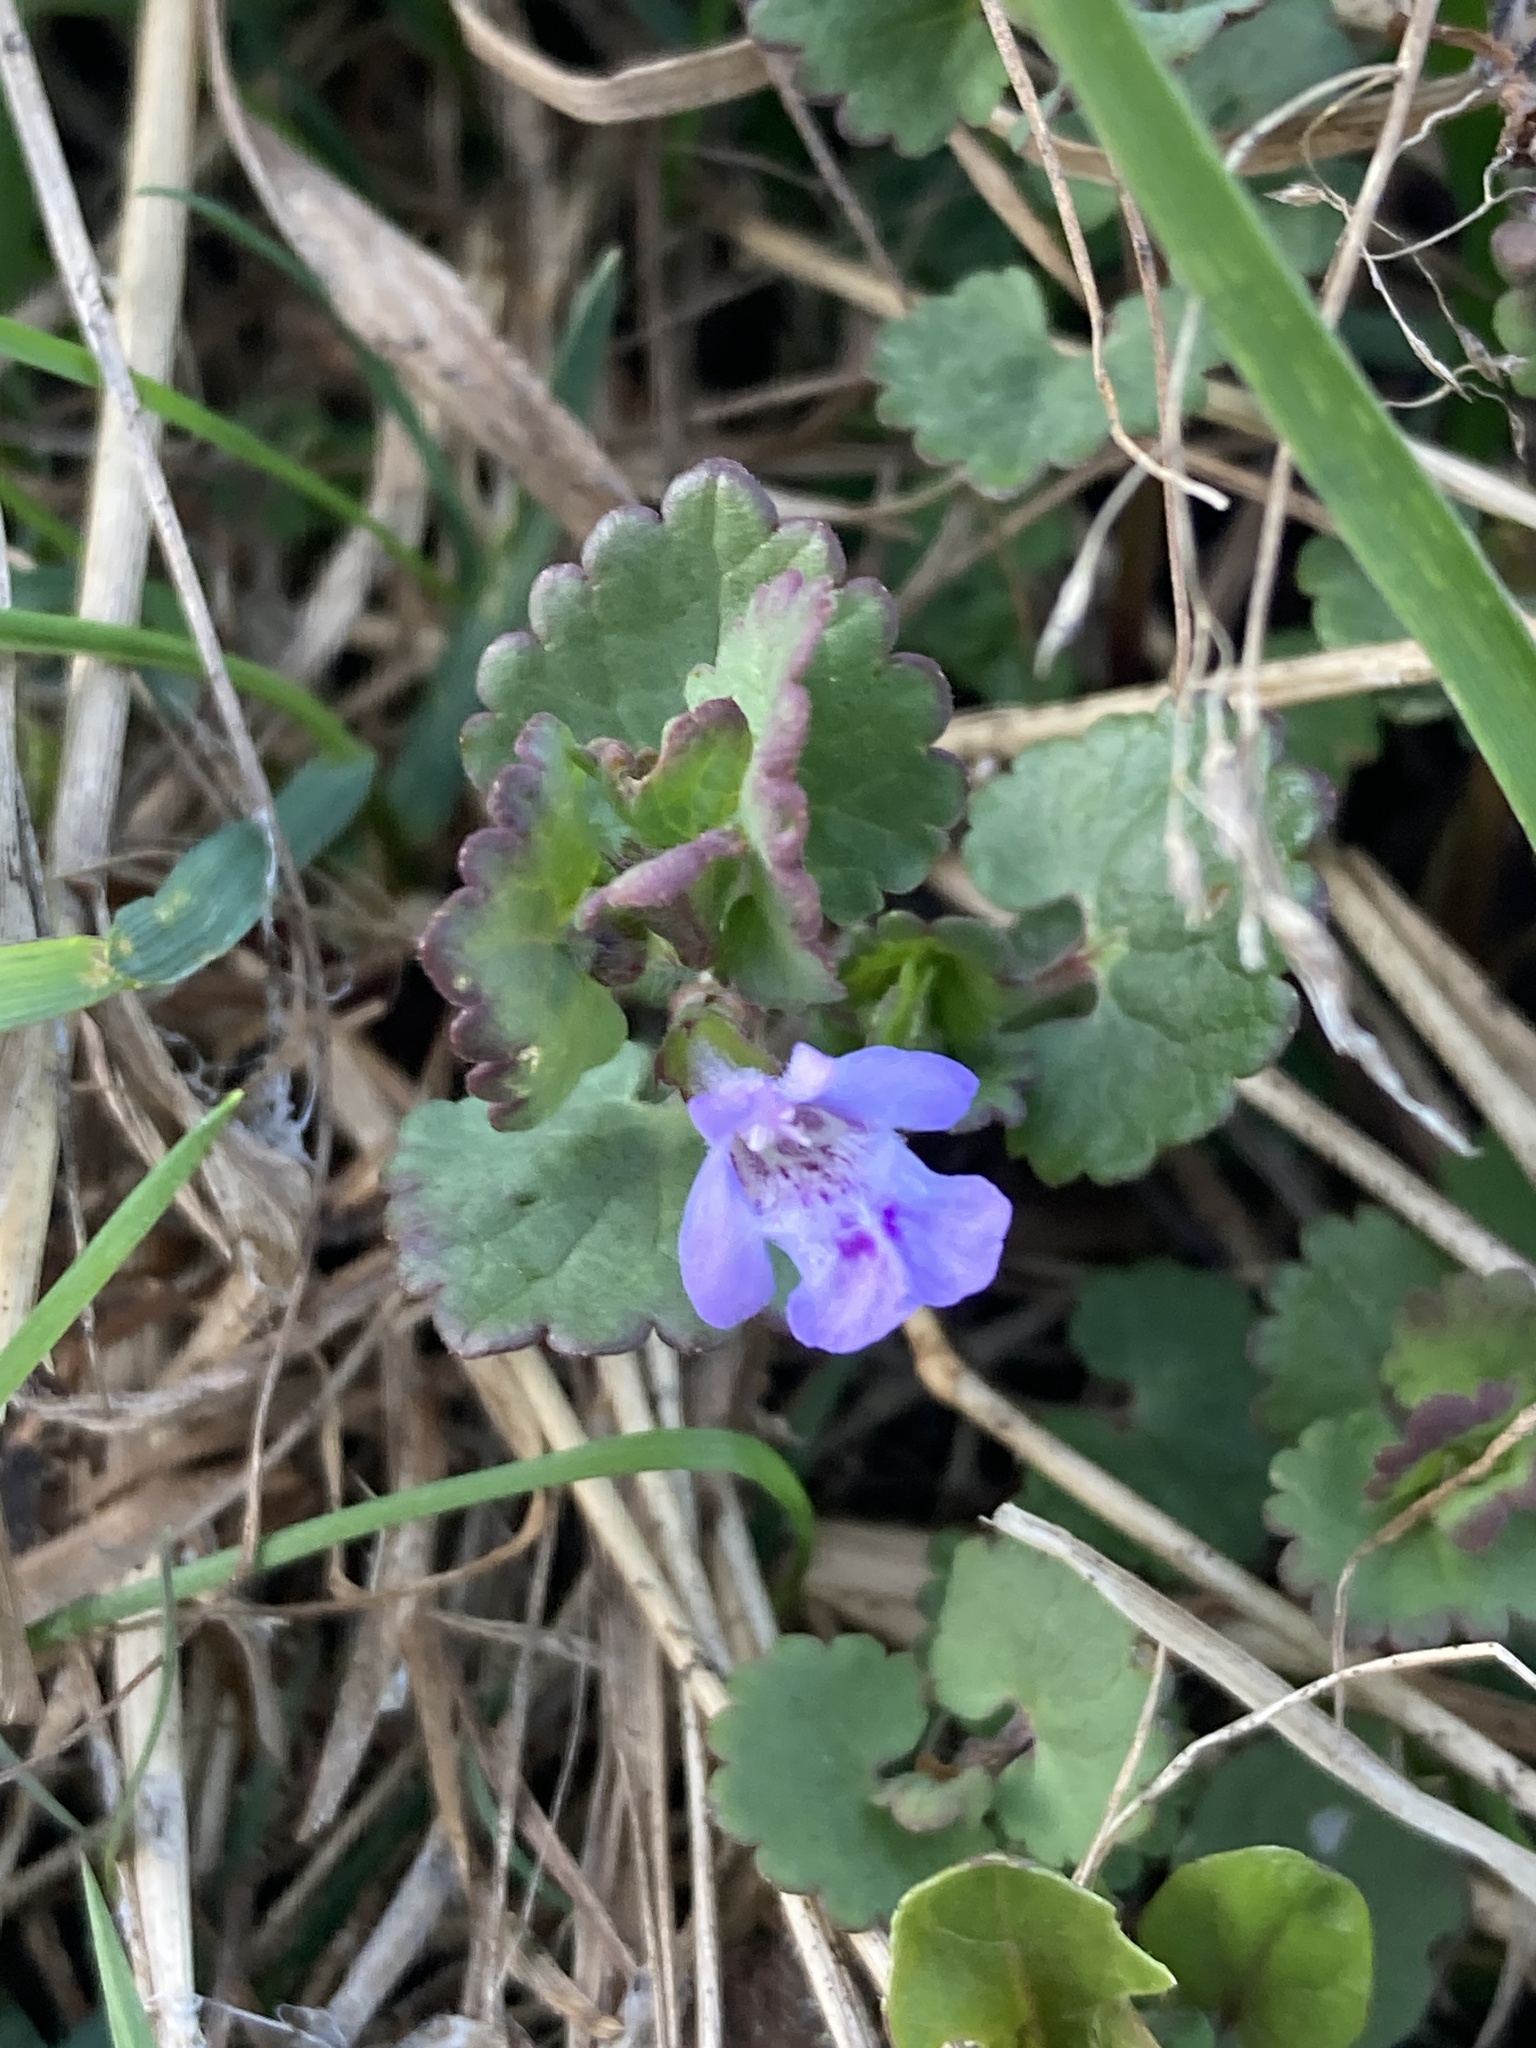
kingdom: Plantae
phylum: Tracheophyta
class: Magnoliopsida
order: Lamiales
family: Lamiaceae
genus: Glechoma
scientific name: Glechoma hederacea
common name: Ground ivy
